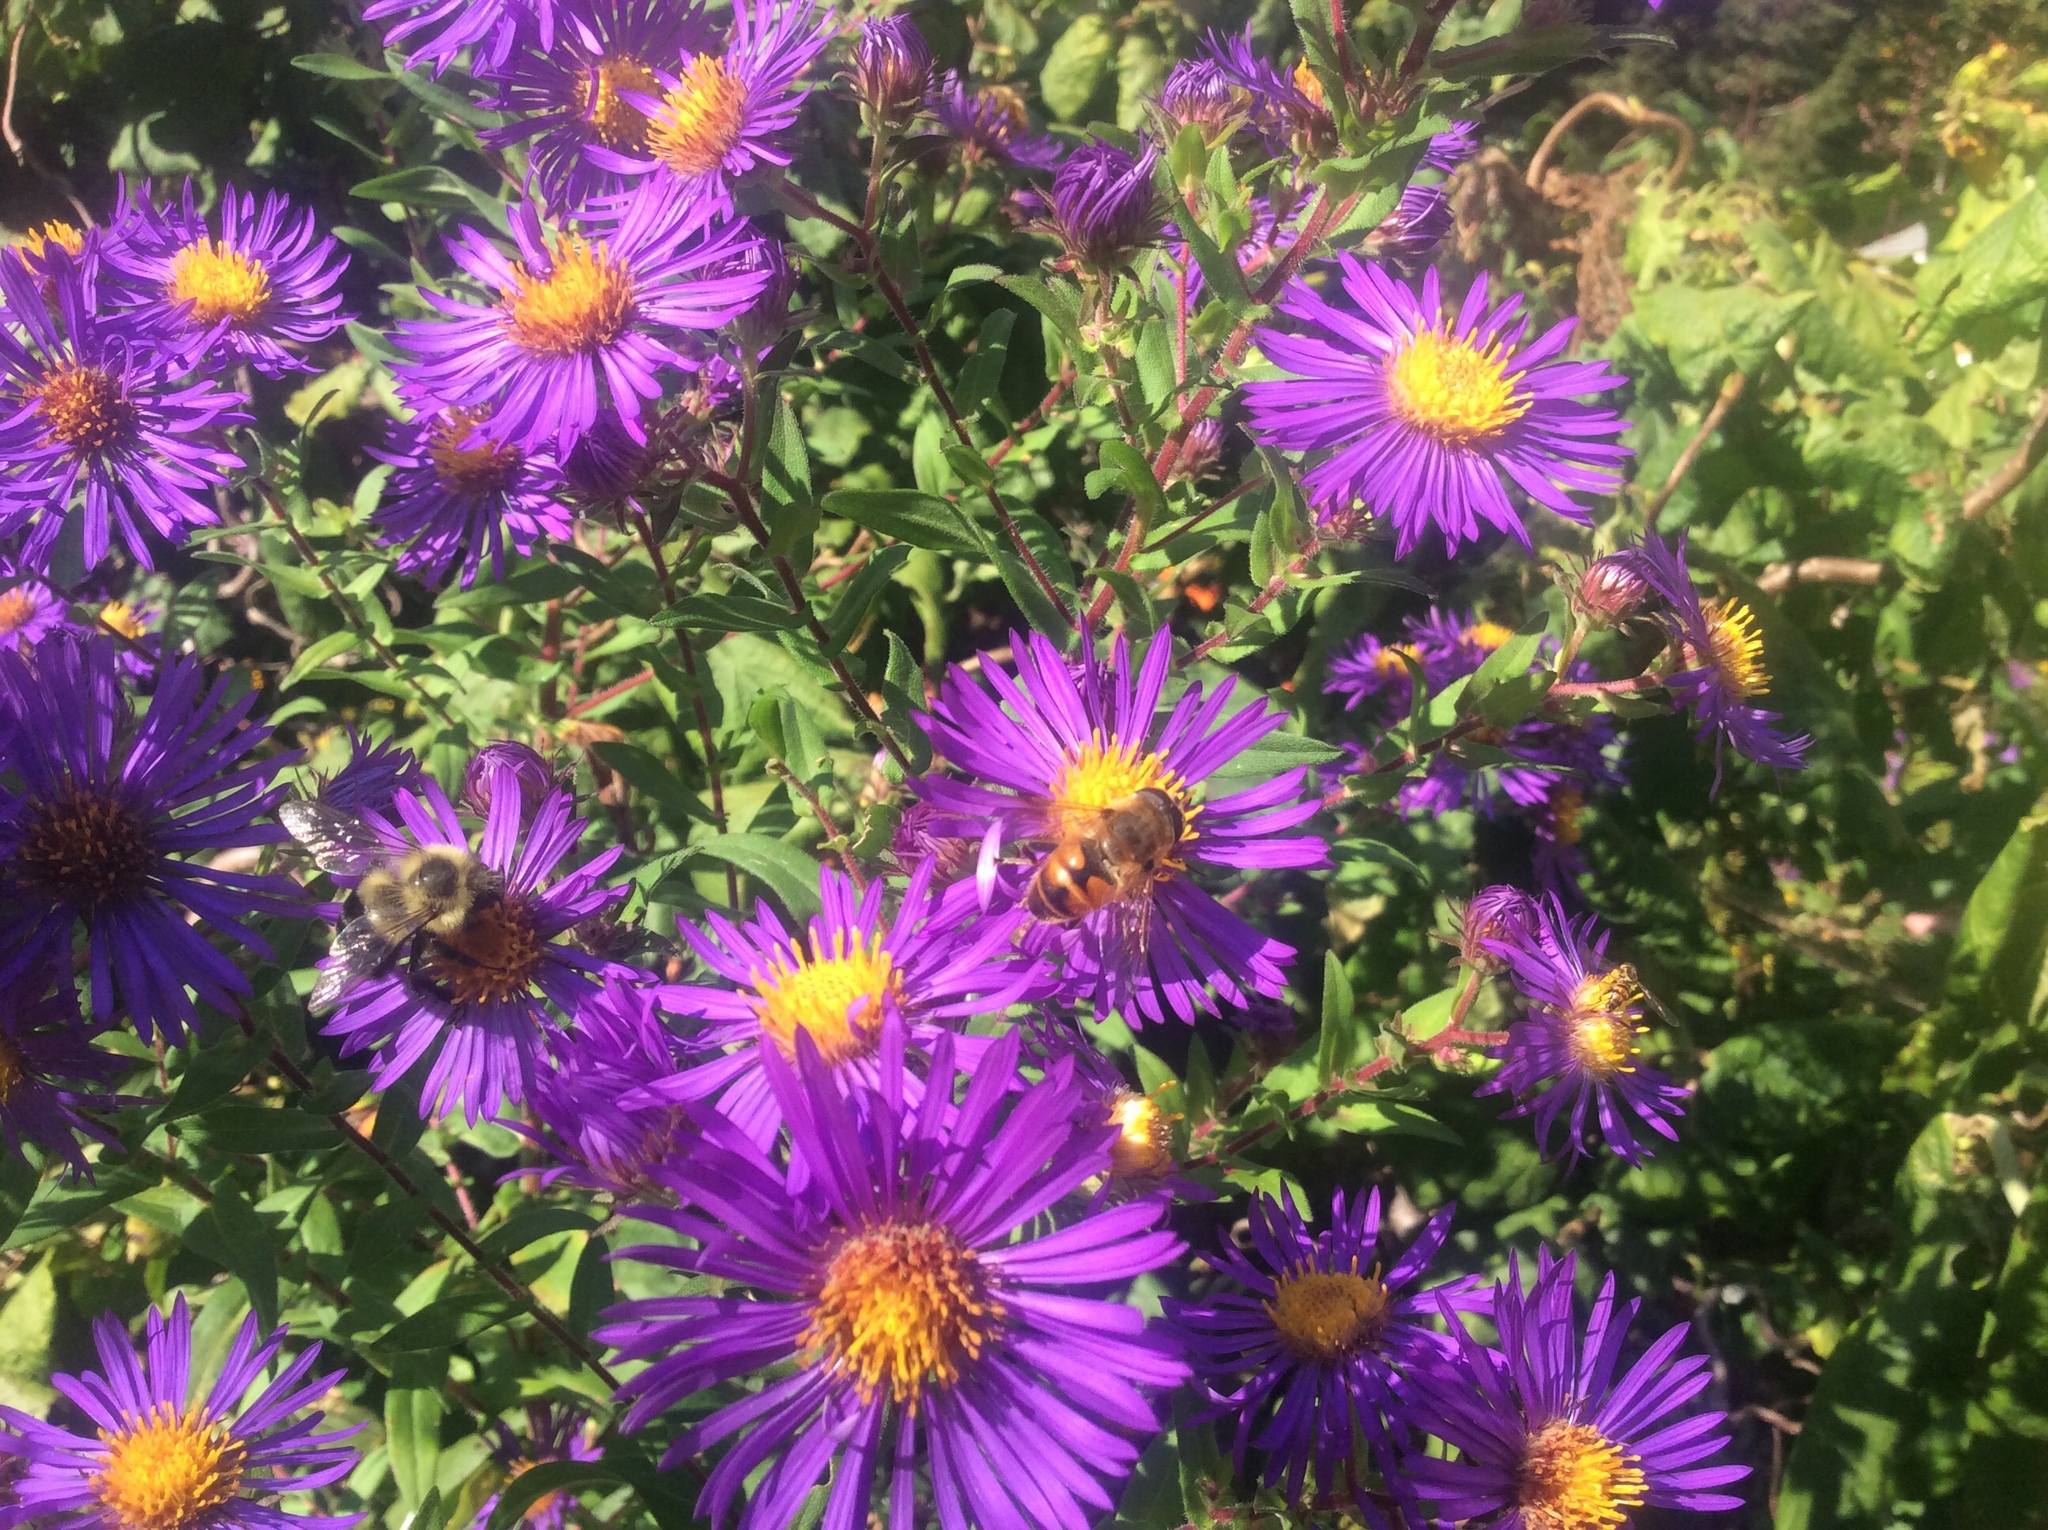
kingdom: Animalia
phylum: Arthropoda
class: Insecta
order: Hymenoptera
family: Apidae
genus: Bombus
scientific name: Bombus impatiens
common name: Common eastern bumble bee
